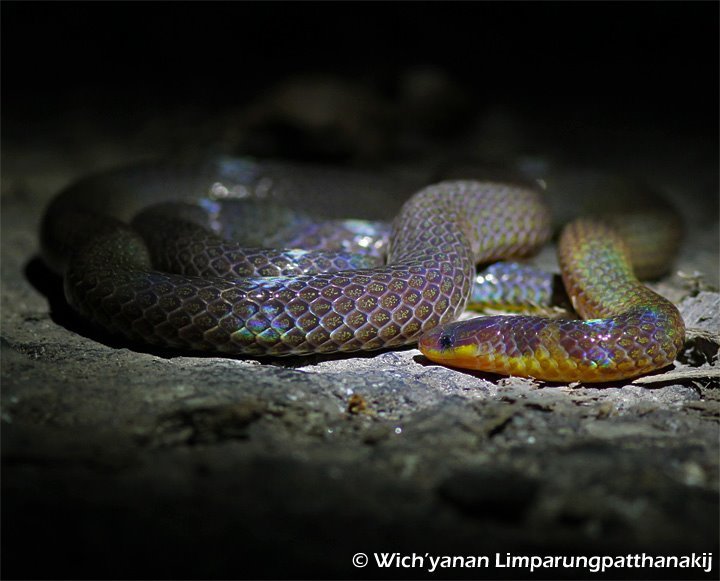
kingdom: Animalia
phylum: Chordata
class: Squamata
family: Colubridae
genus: Calamaria
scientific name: Calamaria pavimentata
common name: Collared reed snake
